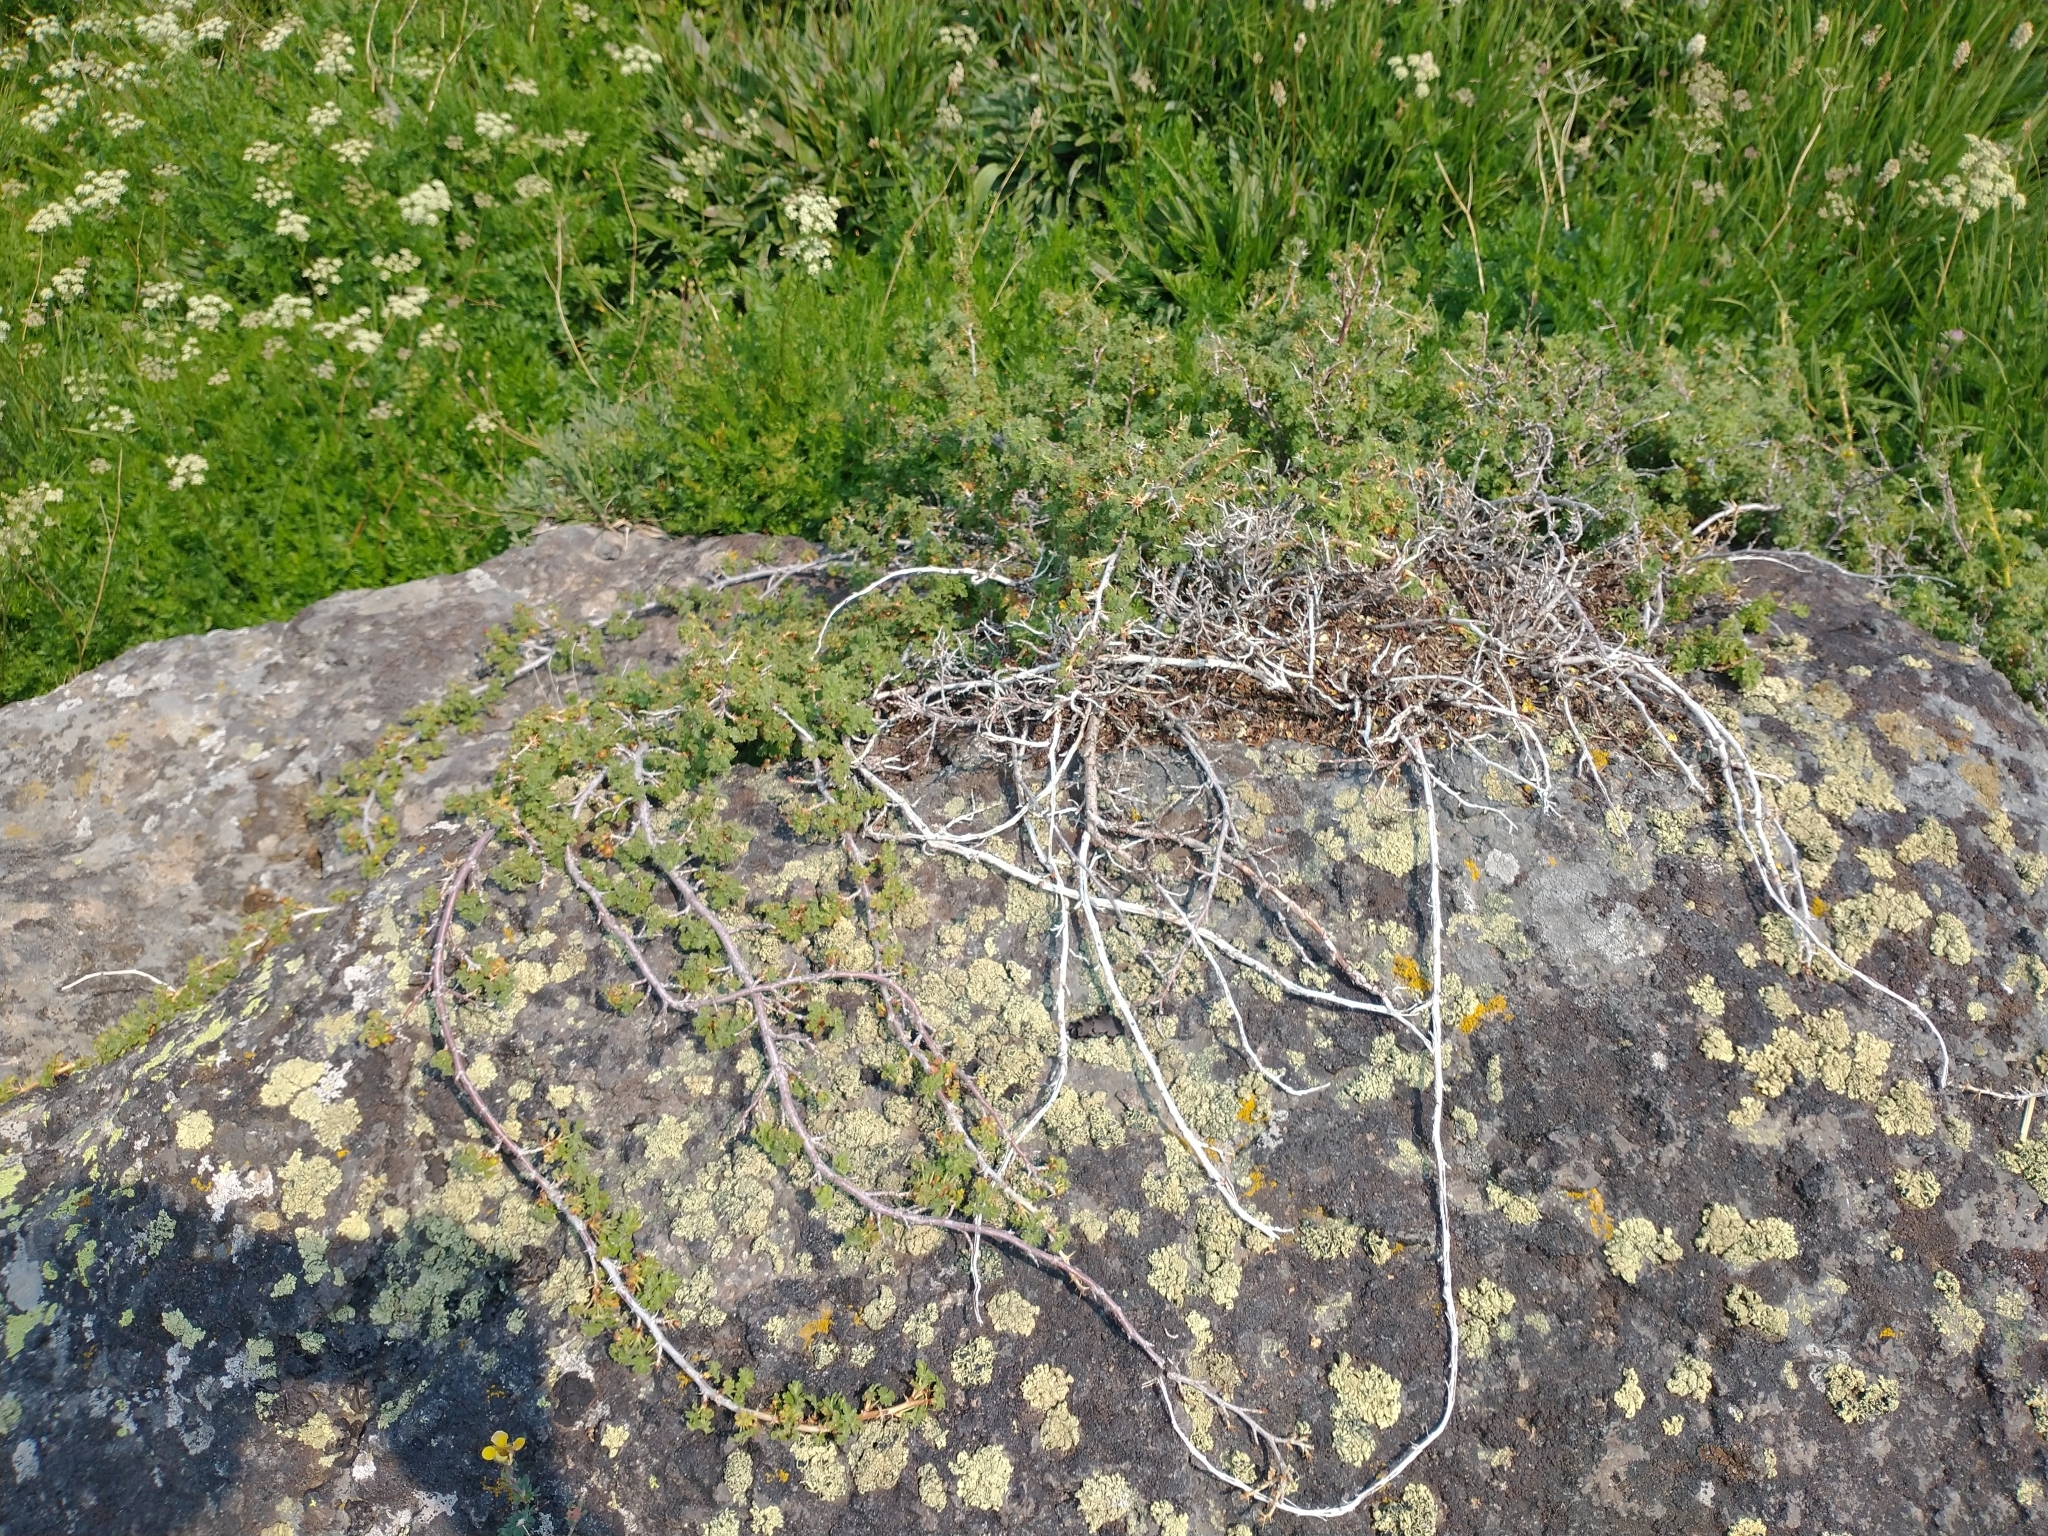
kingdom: Plantae
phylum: Tracheophyta
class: Magnoliopsida
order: Saxifragales
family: Grossulariaceae
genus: Ribes
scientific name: Ribes montigenum
